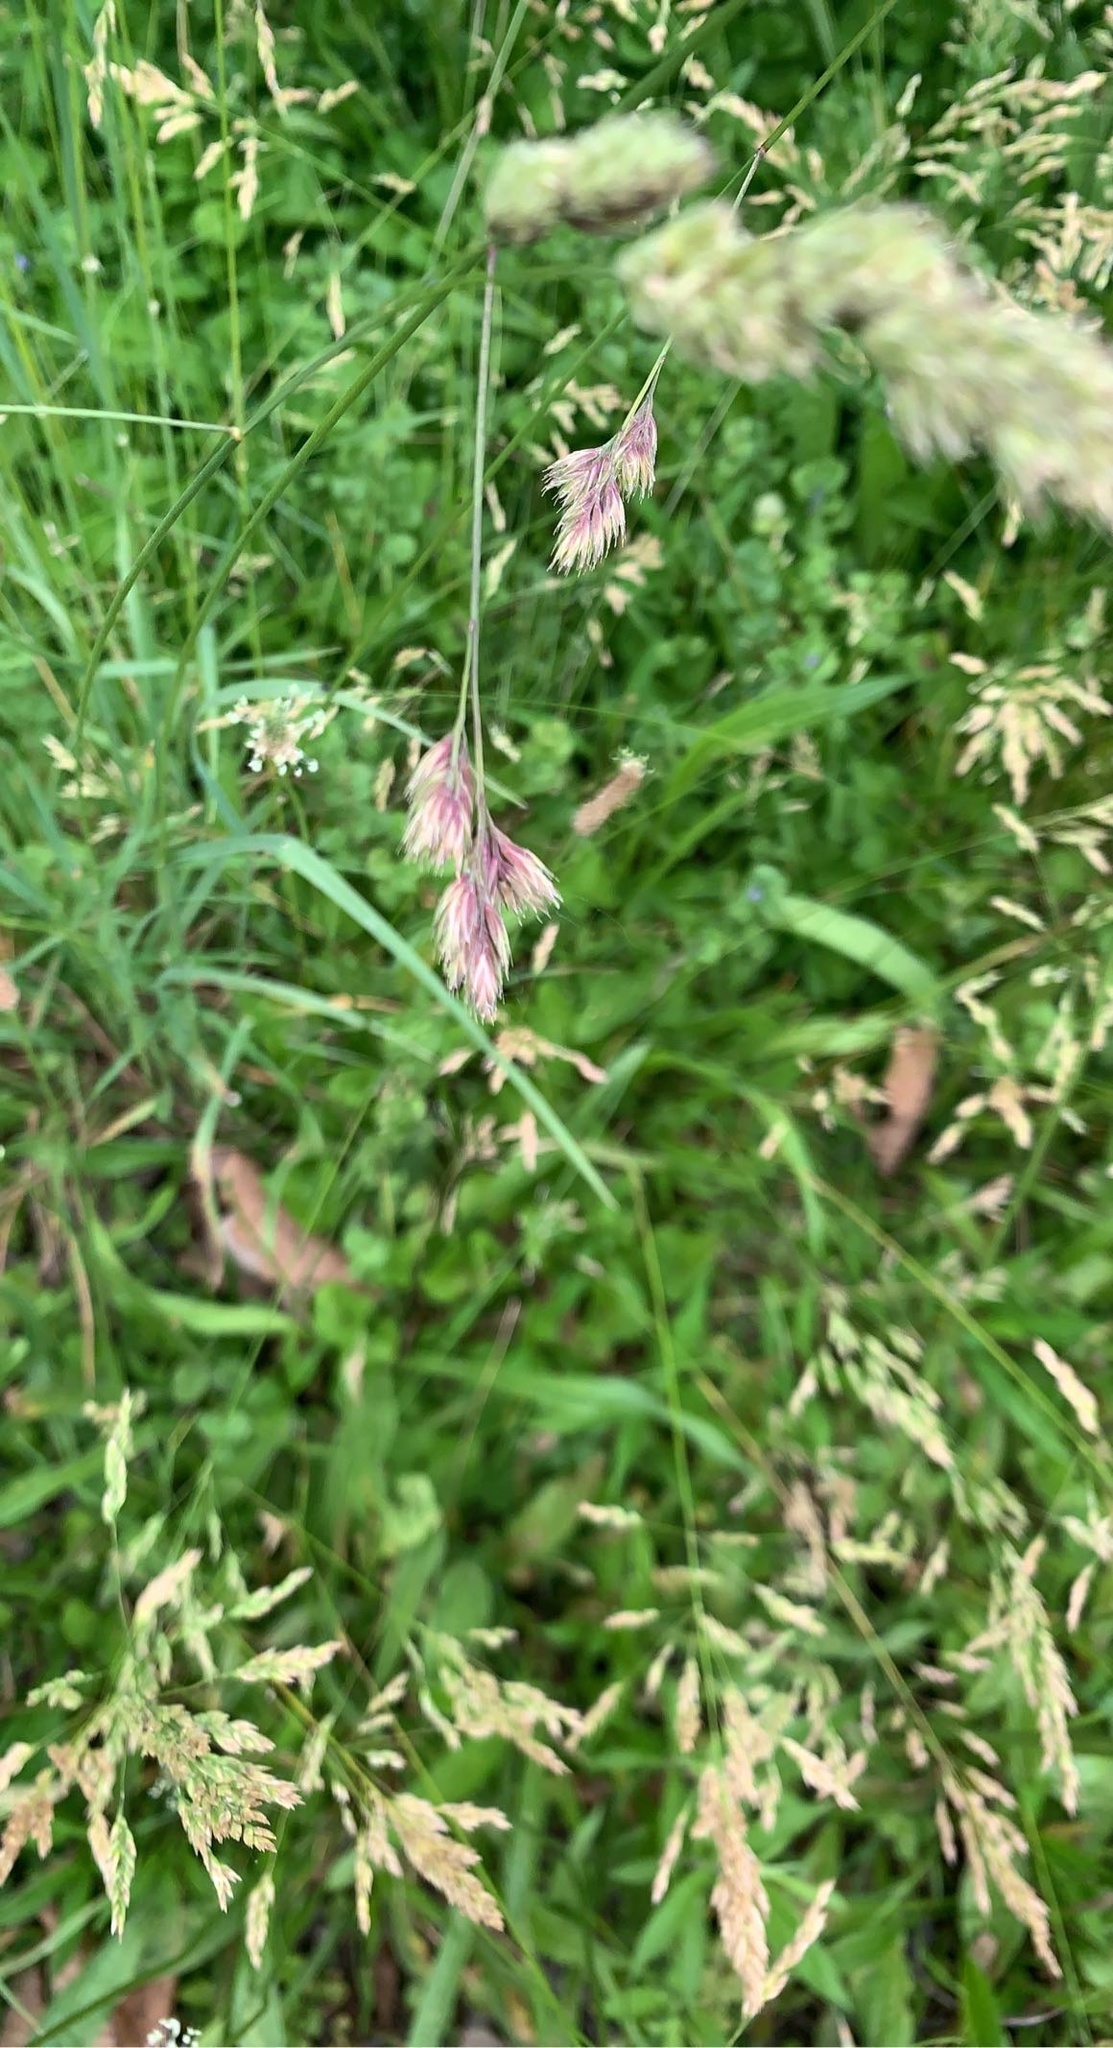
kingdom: Plantae
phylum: Tracheophyta
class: Liliopsida
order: Poales
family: Poaceae
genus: Dactylis
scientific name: Dactylis glomerata
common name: Orchardgrass
